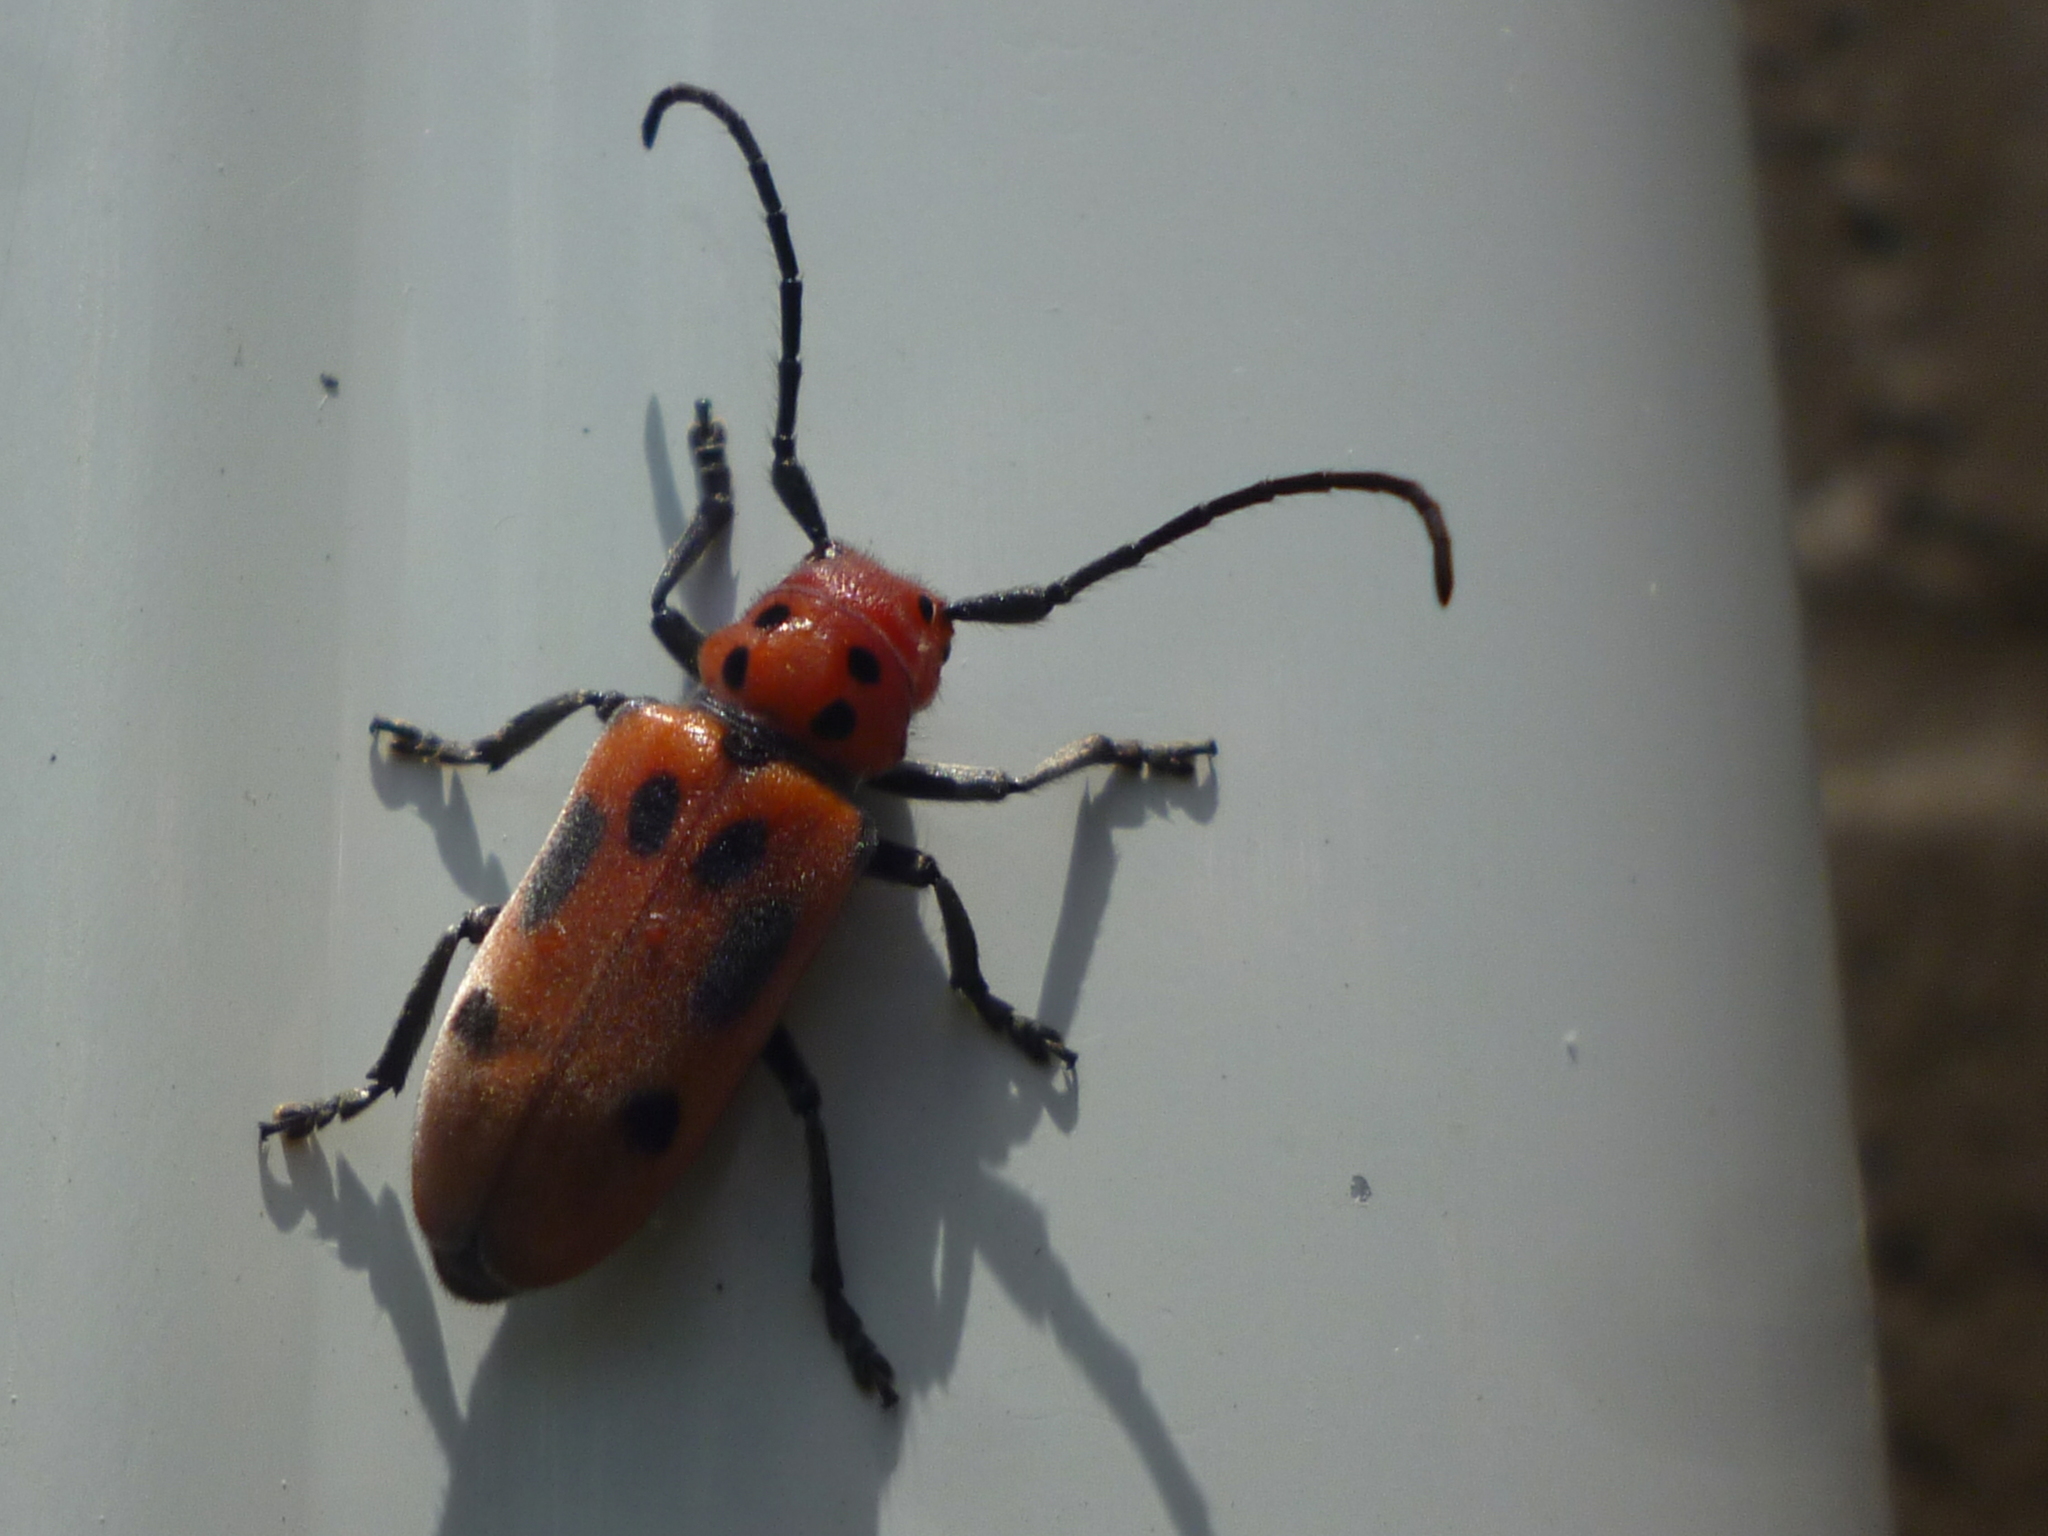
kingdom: Animalia
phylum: Arthropoda
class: Insecta
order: Coleoptera
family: Cerambycidae
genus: Tetraopes
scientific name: Tetraopes tetrophthalmus
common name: Red milkweed beetle
